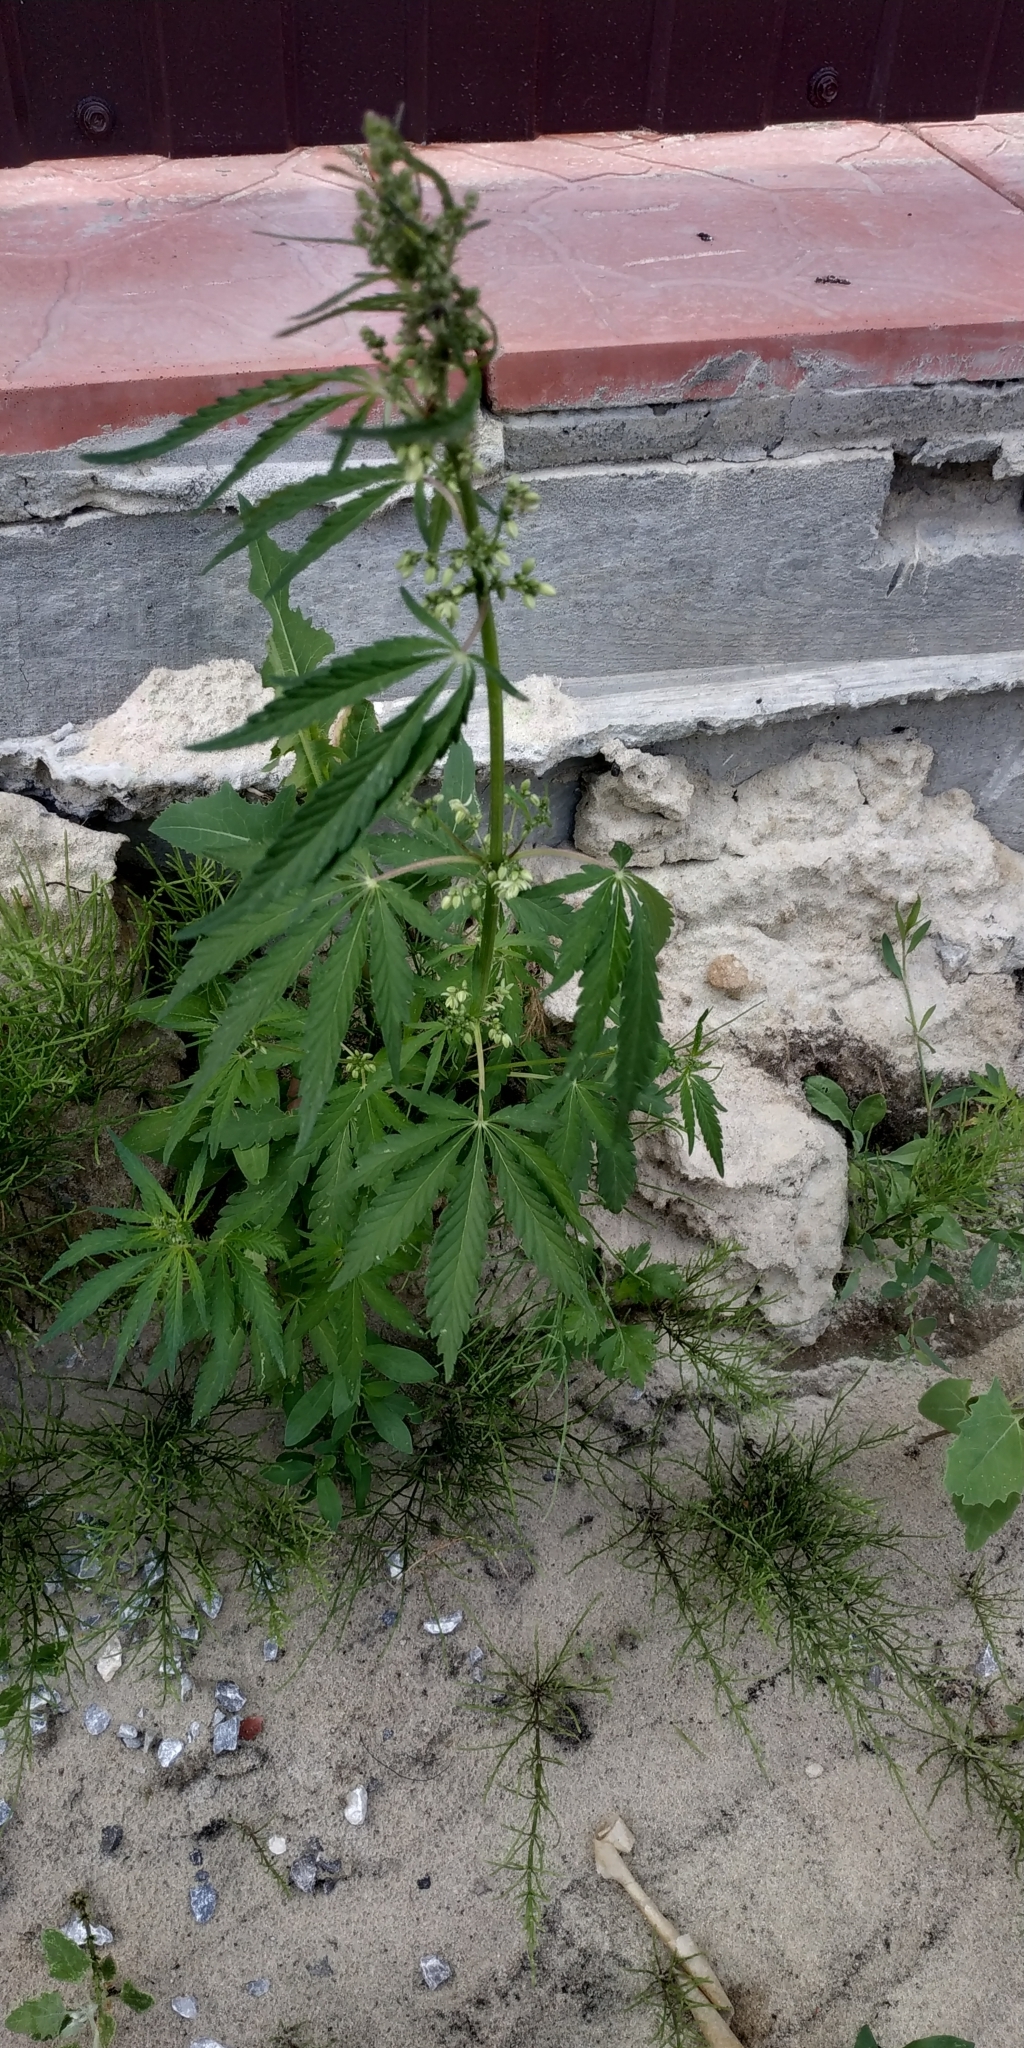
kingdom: Plantae
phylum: Tracheophyta
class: Magnoliopsida
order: Rosales
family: Cannabaceae
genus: Cannabis
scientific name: Cannabis sativa
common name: Hemp
